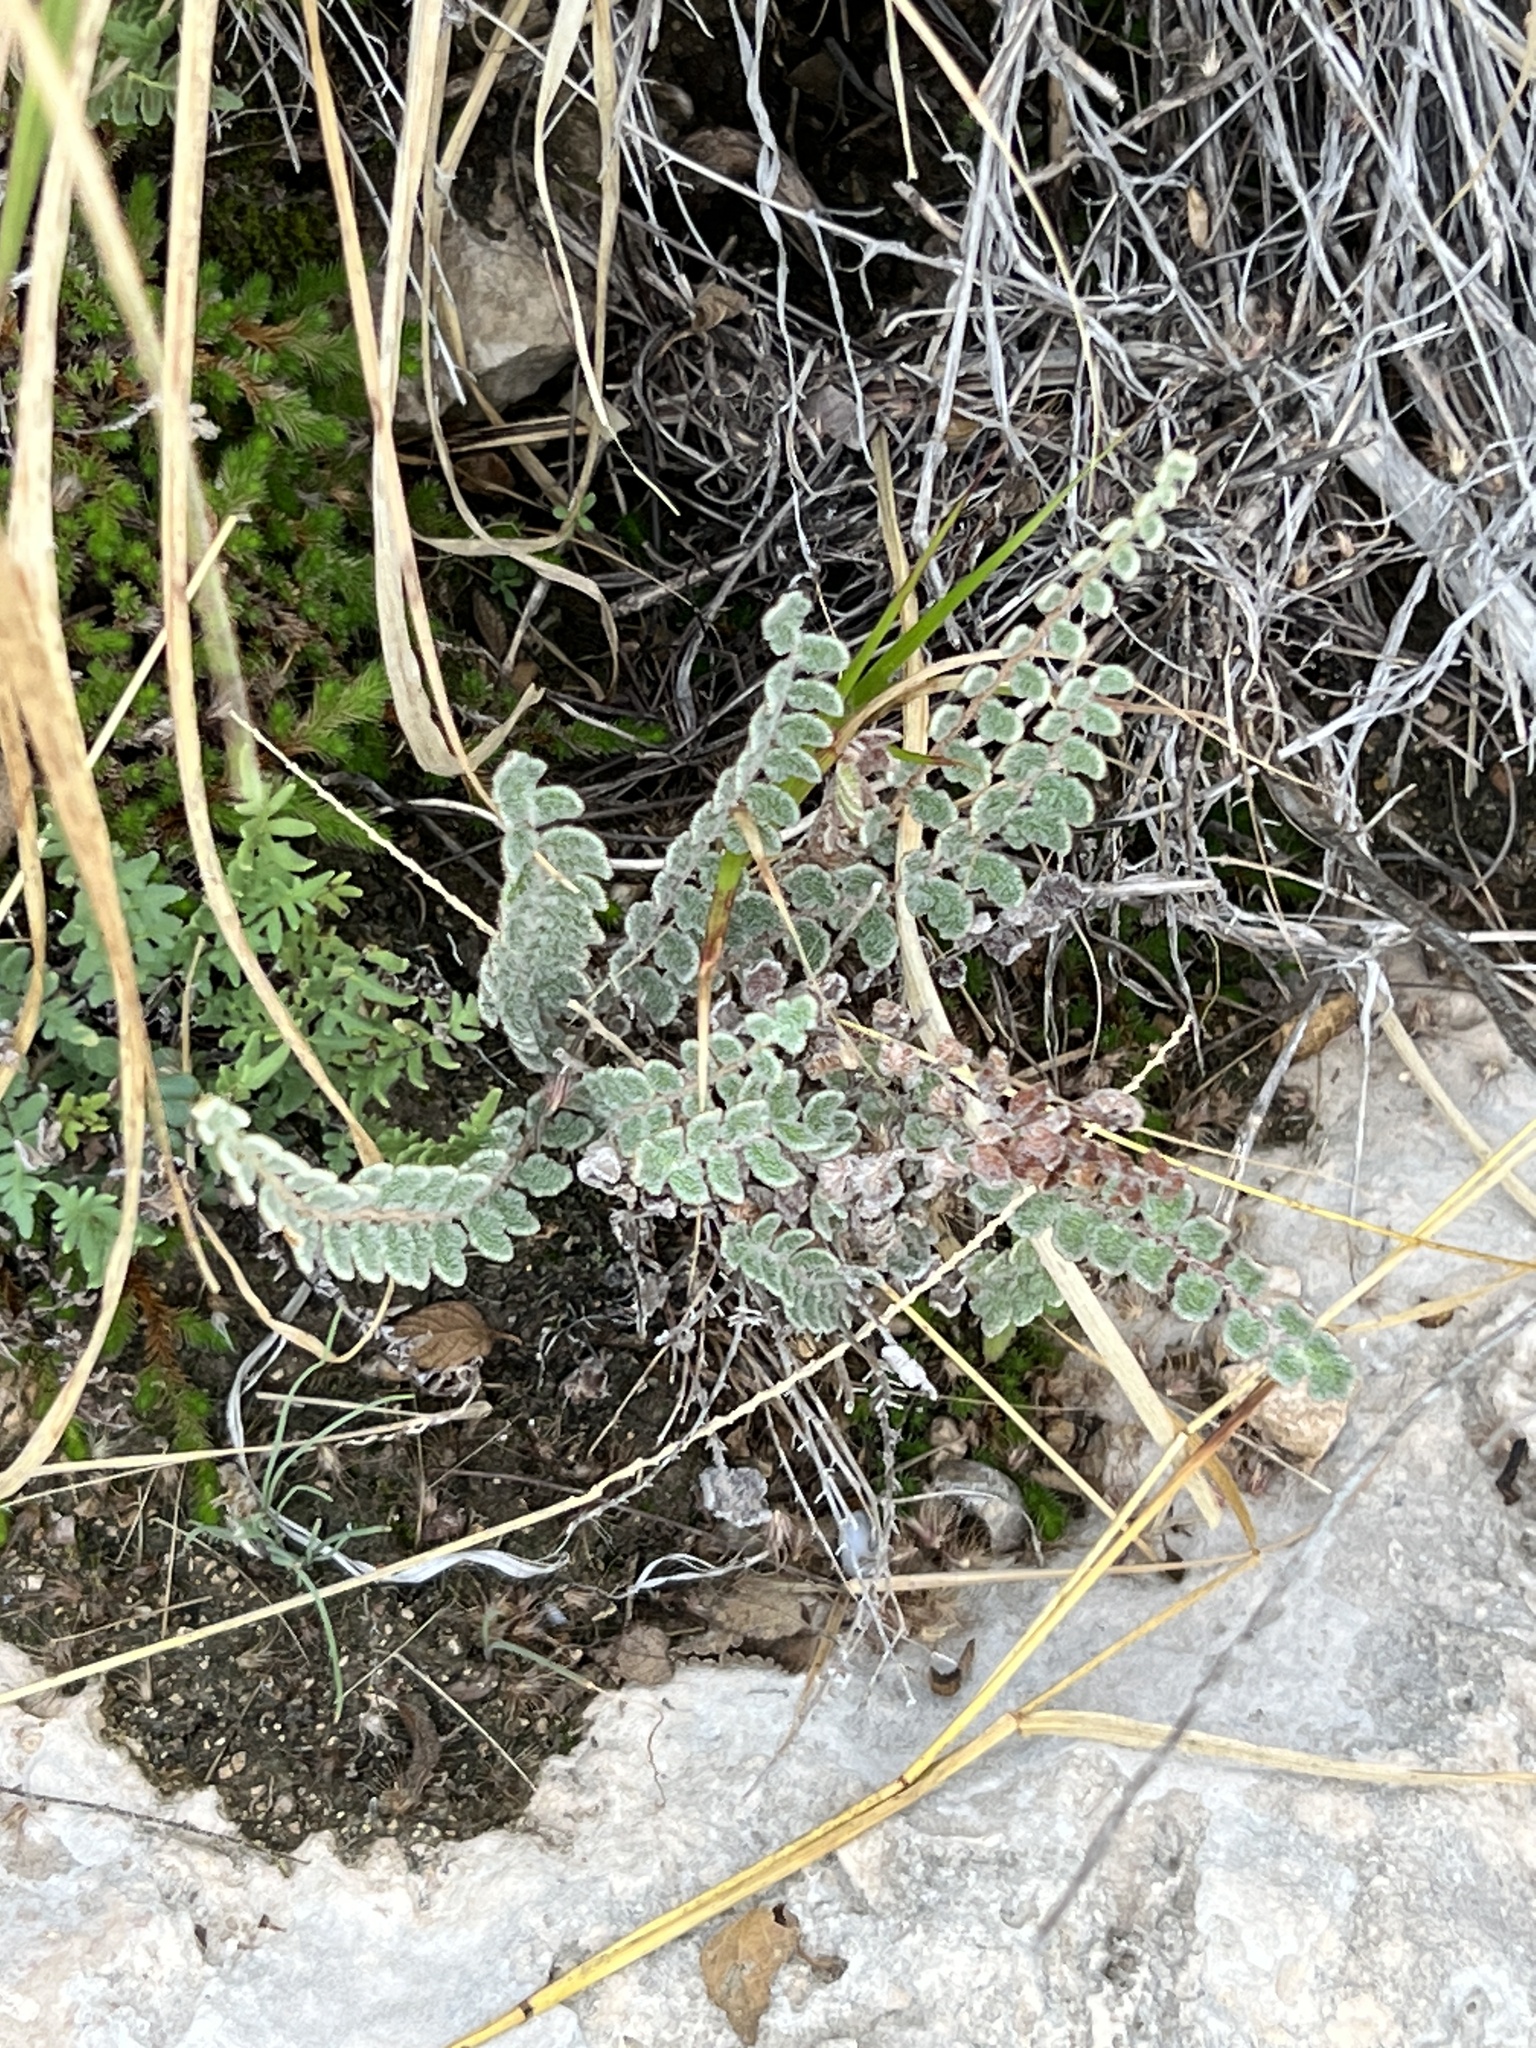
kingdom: Plantae
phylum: Tracheophyta
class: Polypodiopsida
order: Polypodiales
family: Pteridaceae
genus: Astrolepis
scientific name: Astrolepis cochisensis
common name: Scaly cloak fern
